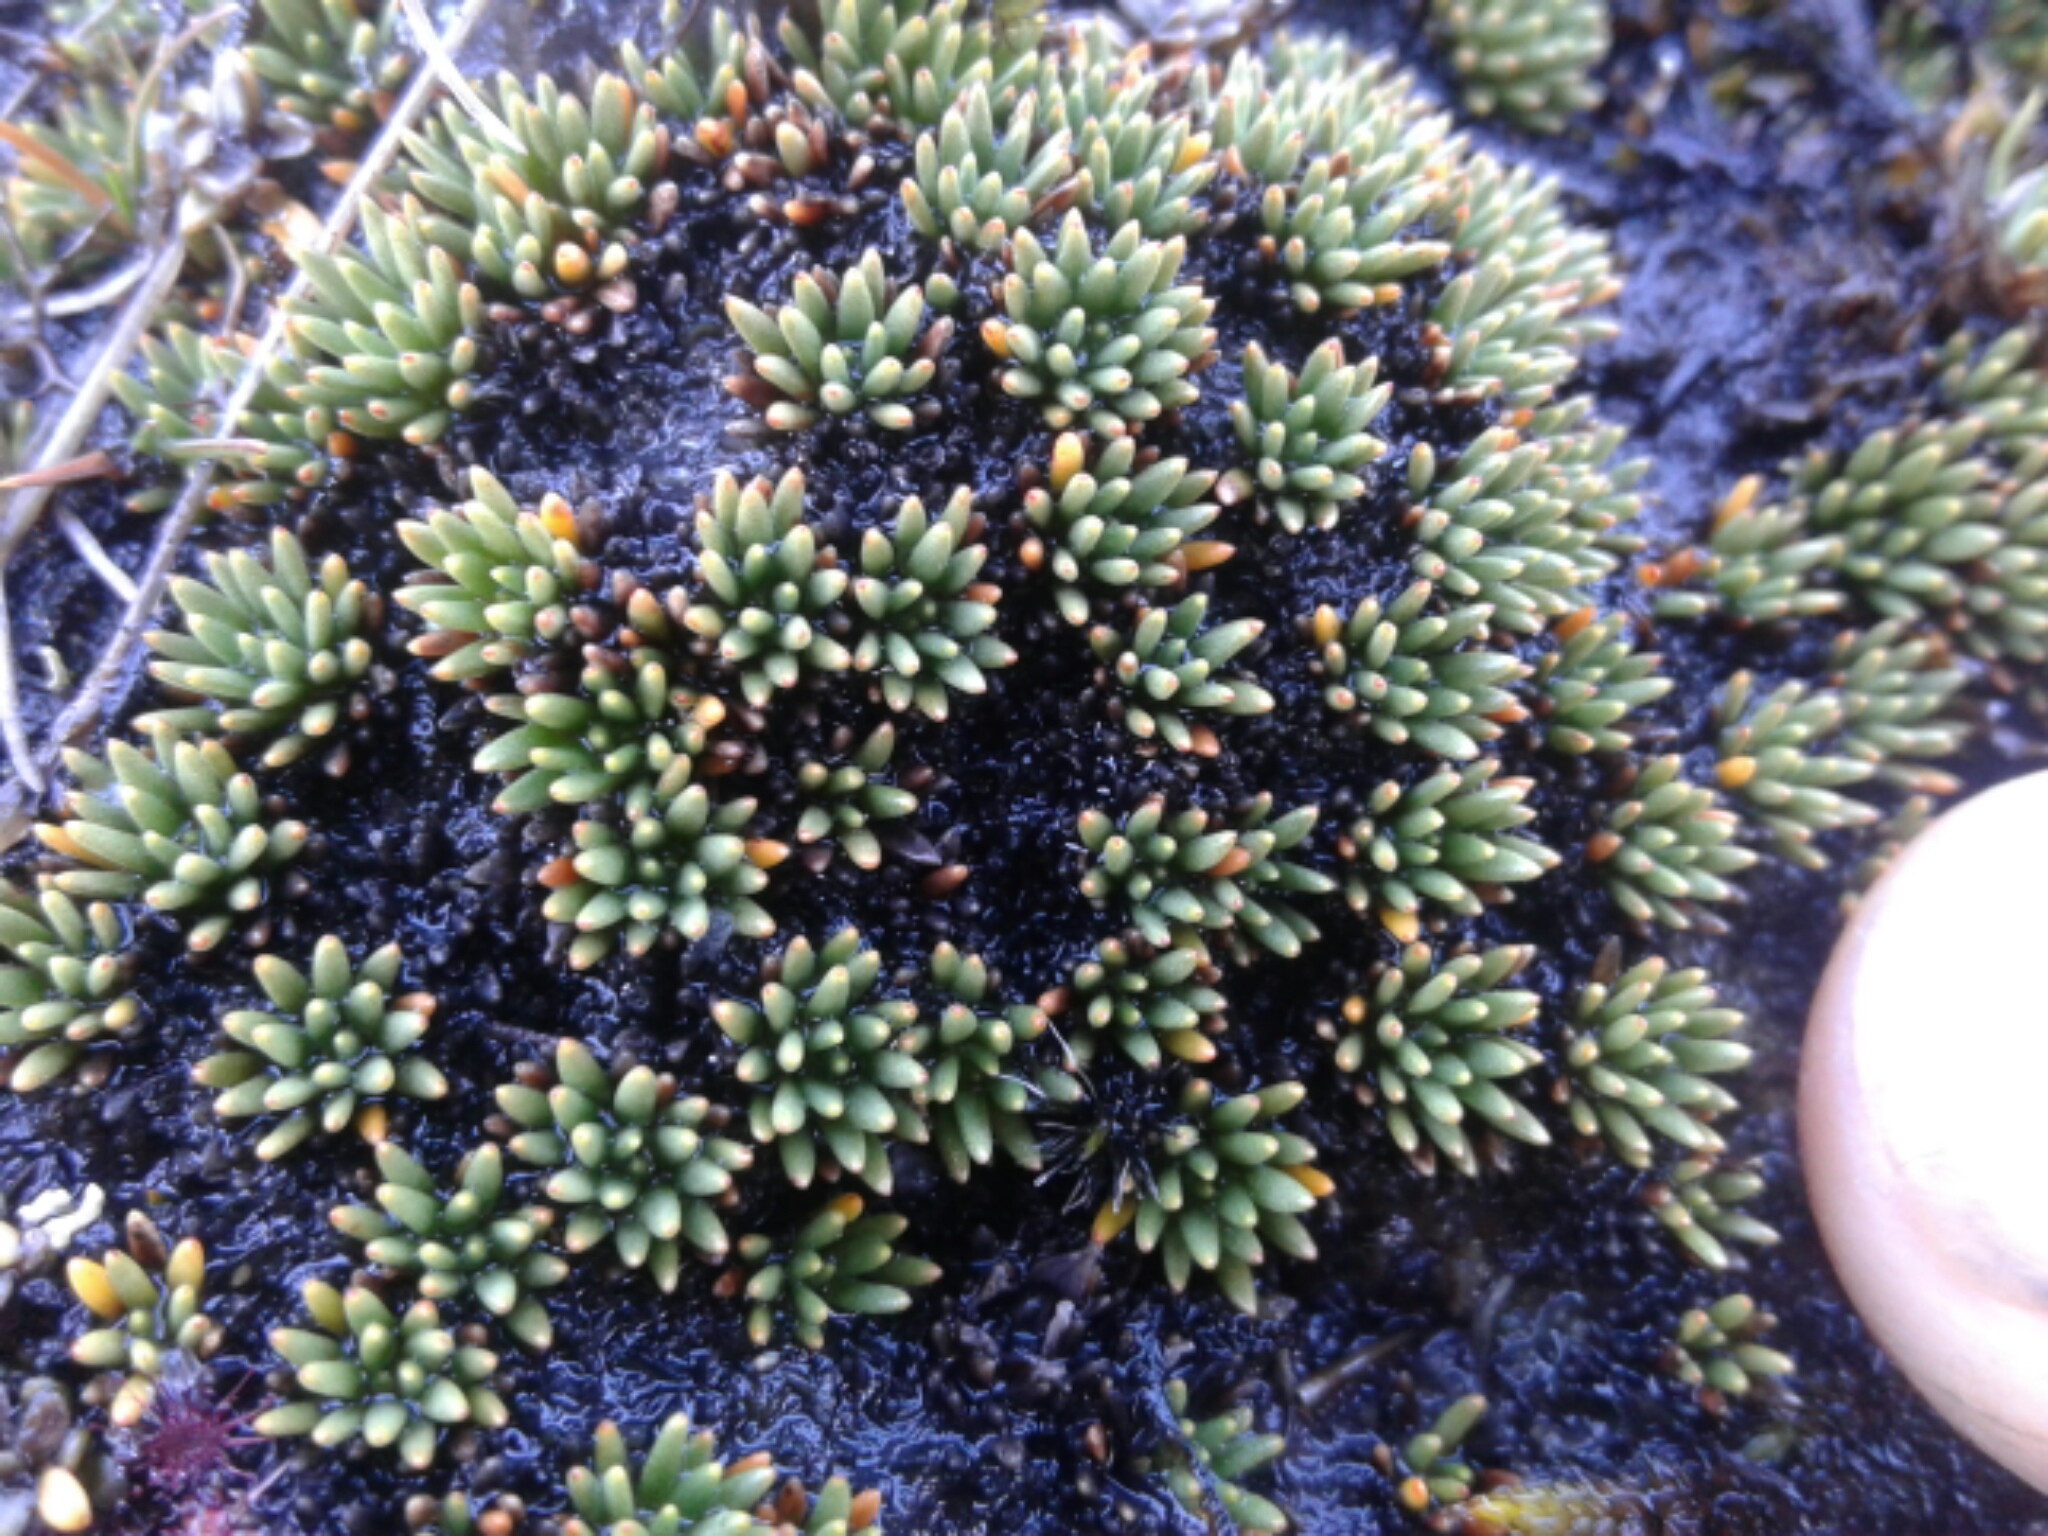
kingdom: Plantae
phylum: Tracheophyta
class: Magnoliopsida
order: Asterales
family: Stylidiaceae
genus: Donatia
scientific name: Donatia novae-zelandiae
